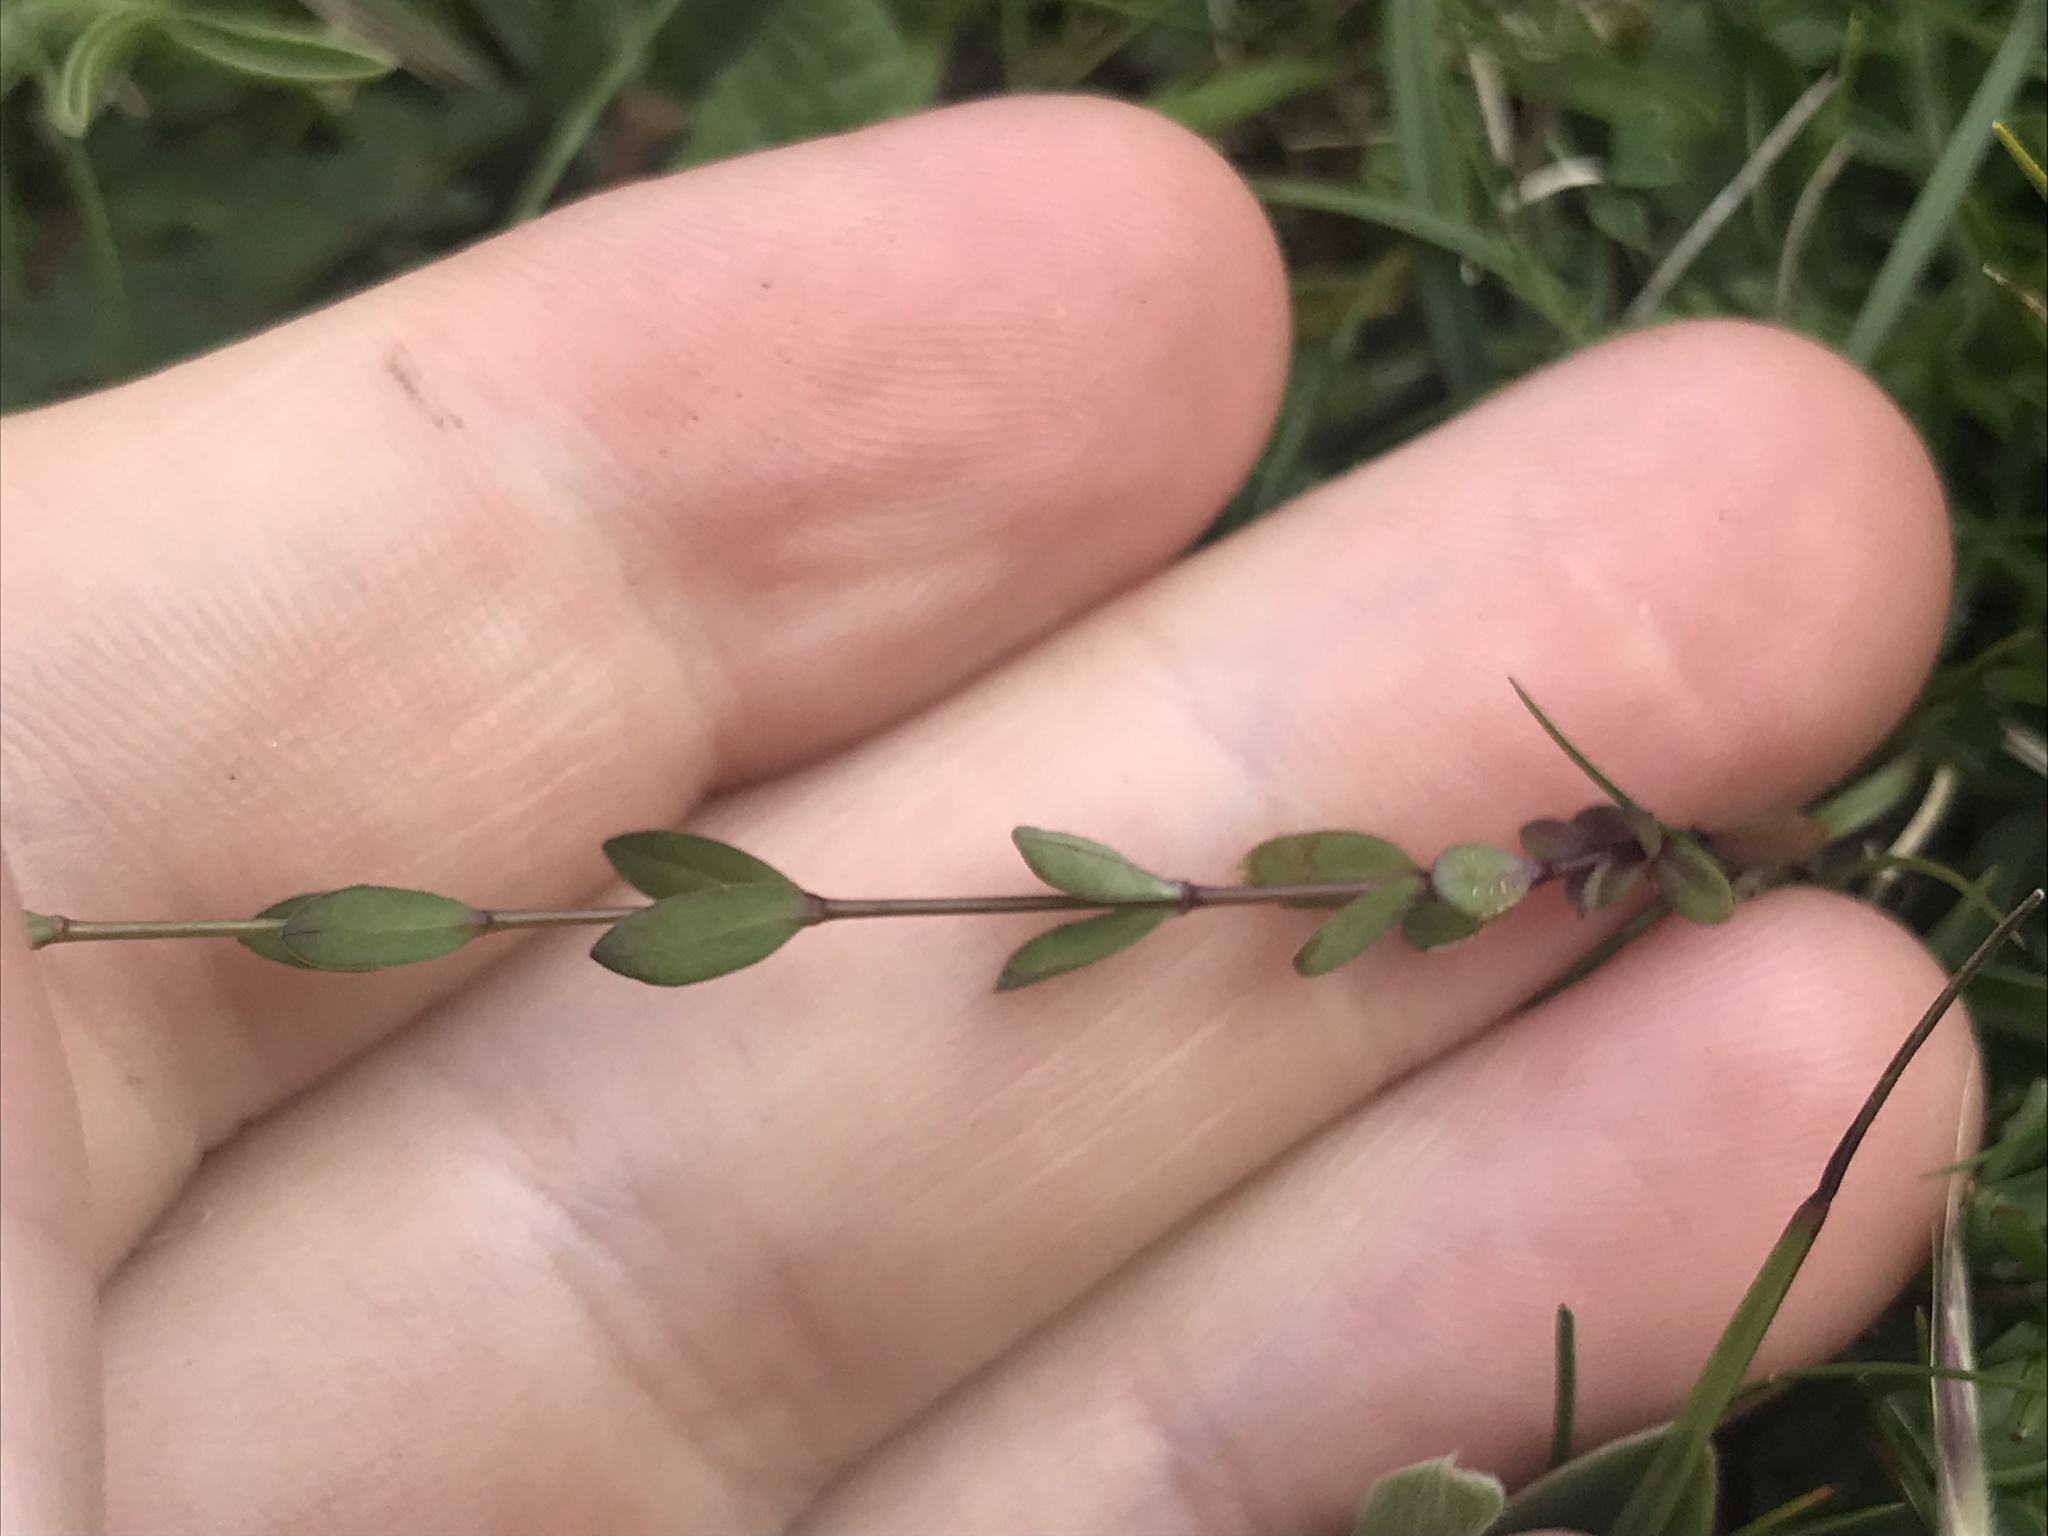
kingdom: Plantae
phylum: Tracheophyta
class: Magnoliopsida
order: Malpighiales
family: Linaceae
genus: Linum
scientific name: Linum catharticum
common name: Fairy flax
